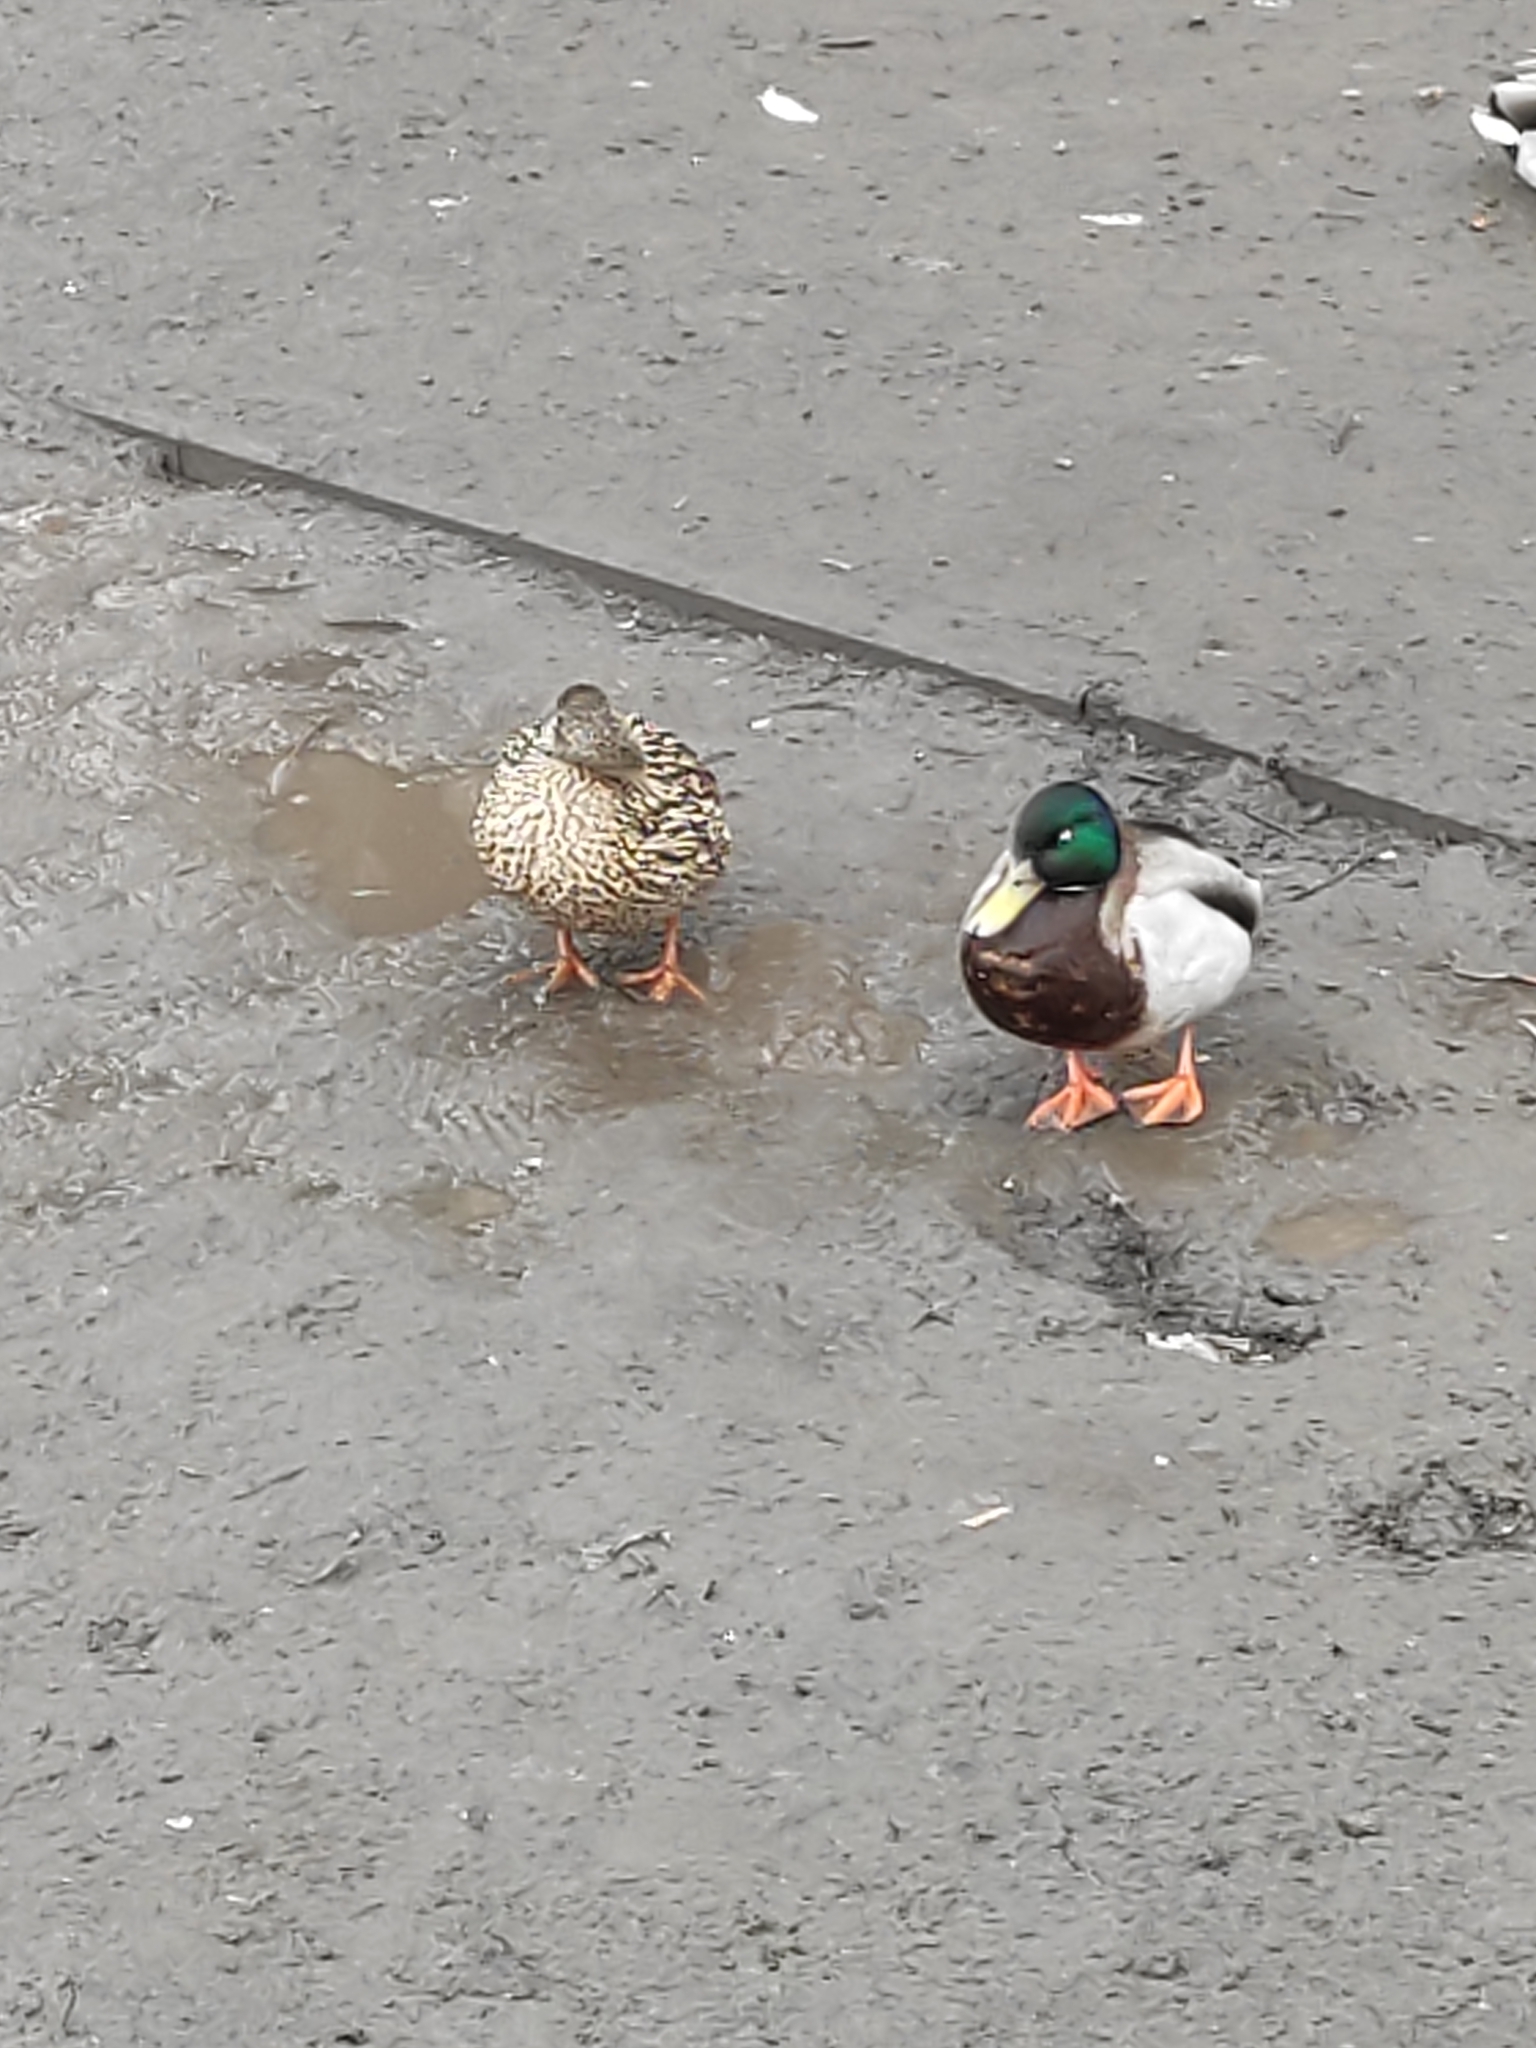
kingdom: Animalia
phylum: Chordata
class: Aves
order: Anseriformes
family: Anatidae
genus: Anas
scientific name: Anas platyrhynchos
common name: Mallard
